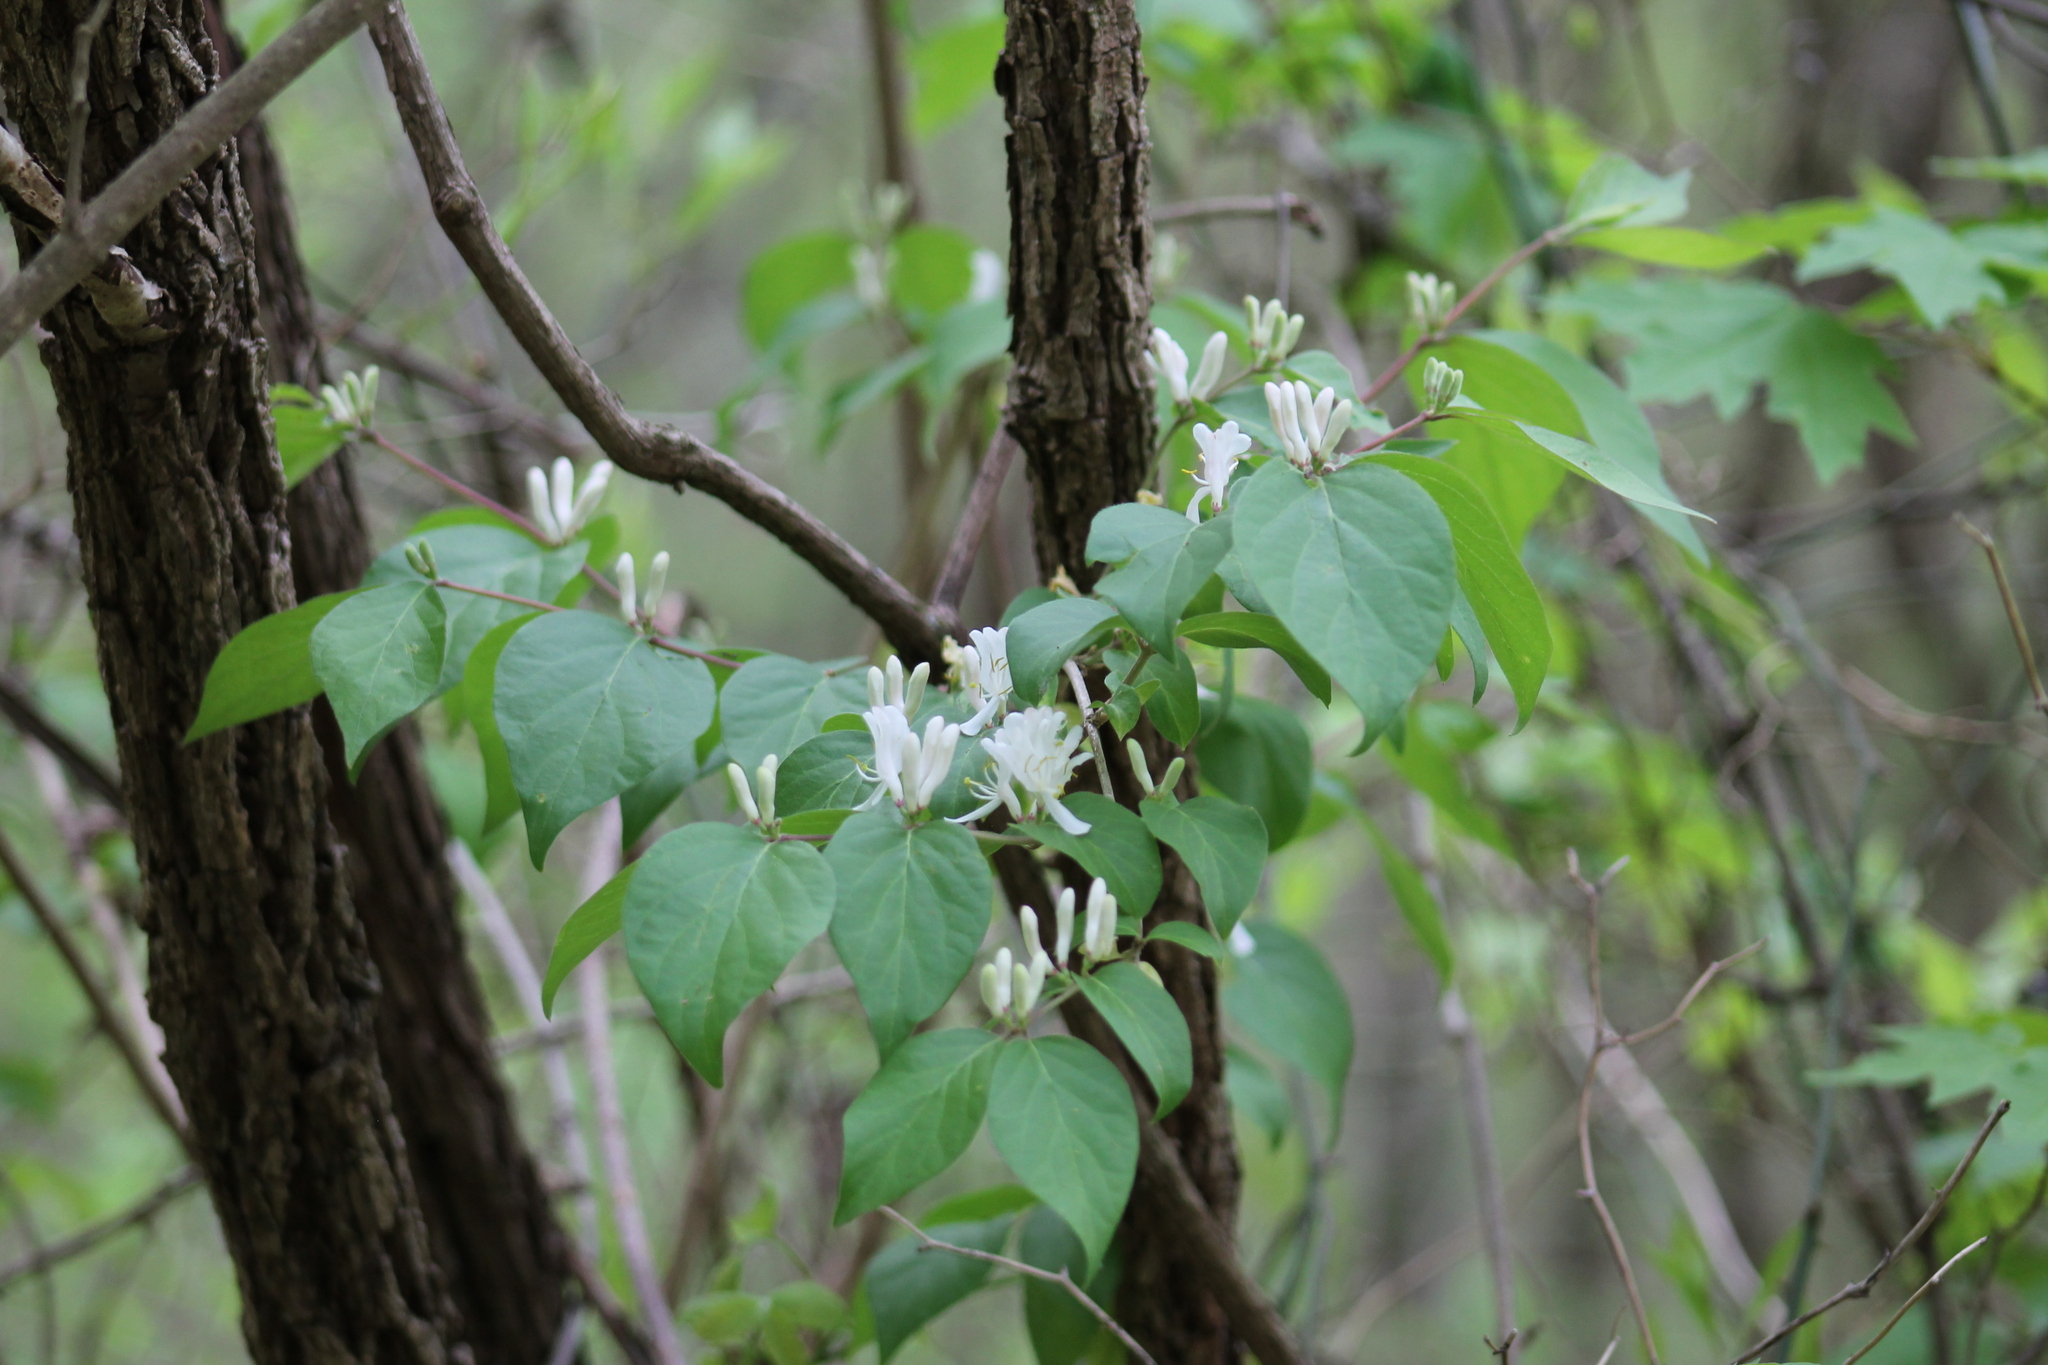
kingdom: Plantae
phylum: Tracheophyta
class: Magnoliopsida
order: Dipsacales
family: Caprifoliaceae
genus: Lonicera
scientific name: Lonicera japonica
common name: Japanese honeysuckle
